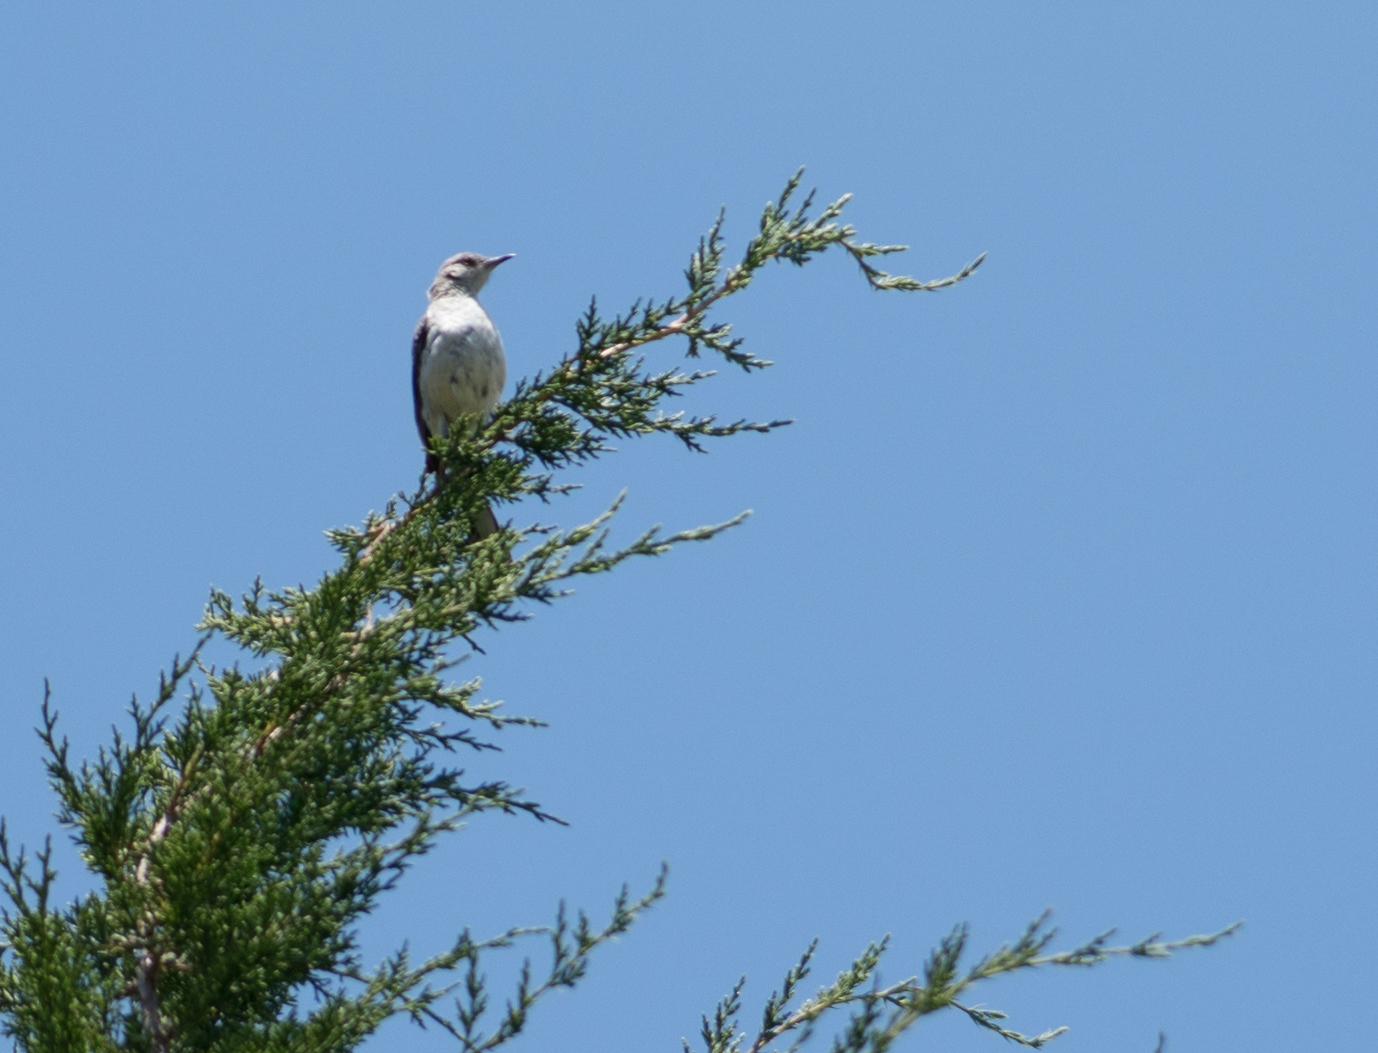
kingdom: Animalia
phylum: Chordata
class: Aves
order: Passeriformes
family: Mimidae
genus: Mimus
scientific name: Mimus polyglottos
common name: Northern mockingbird
